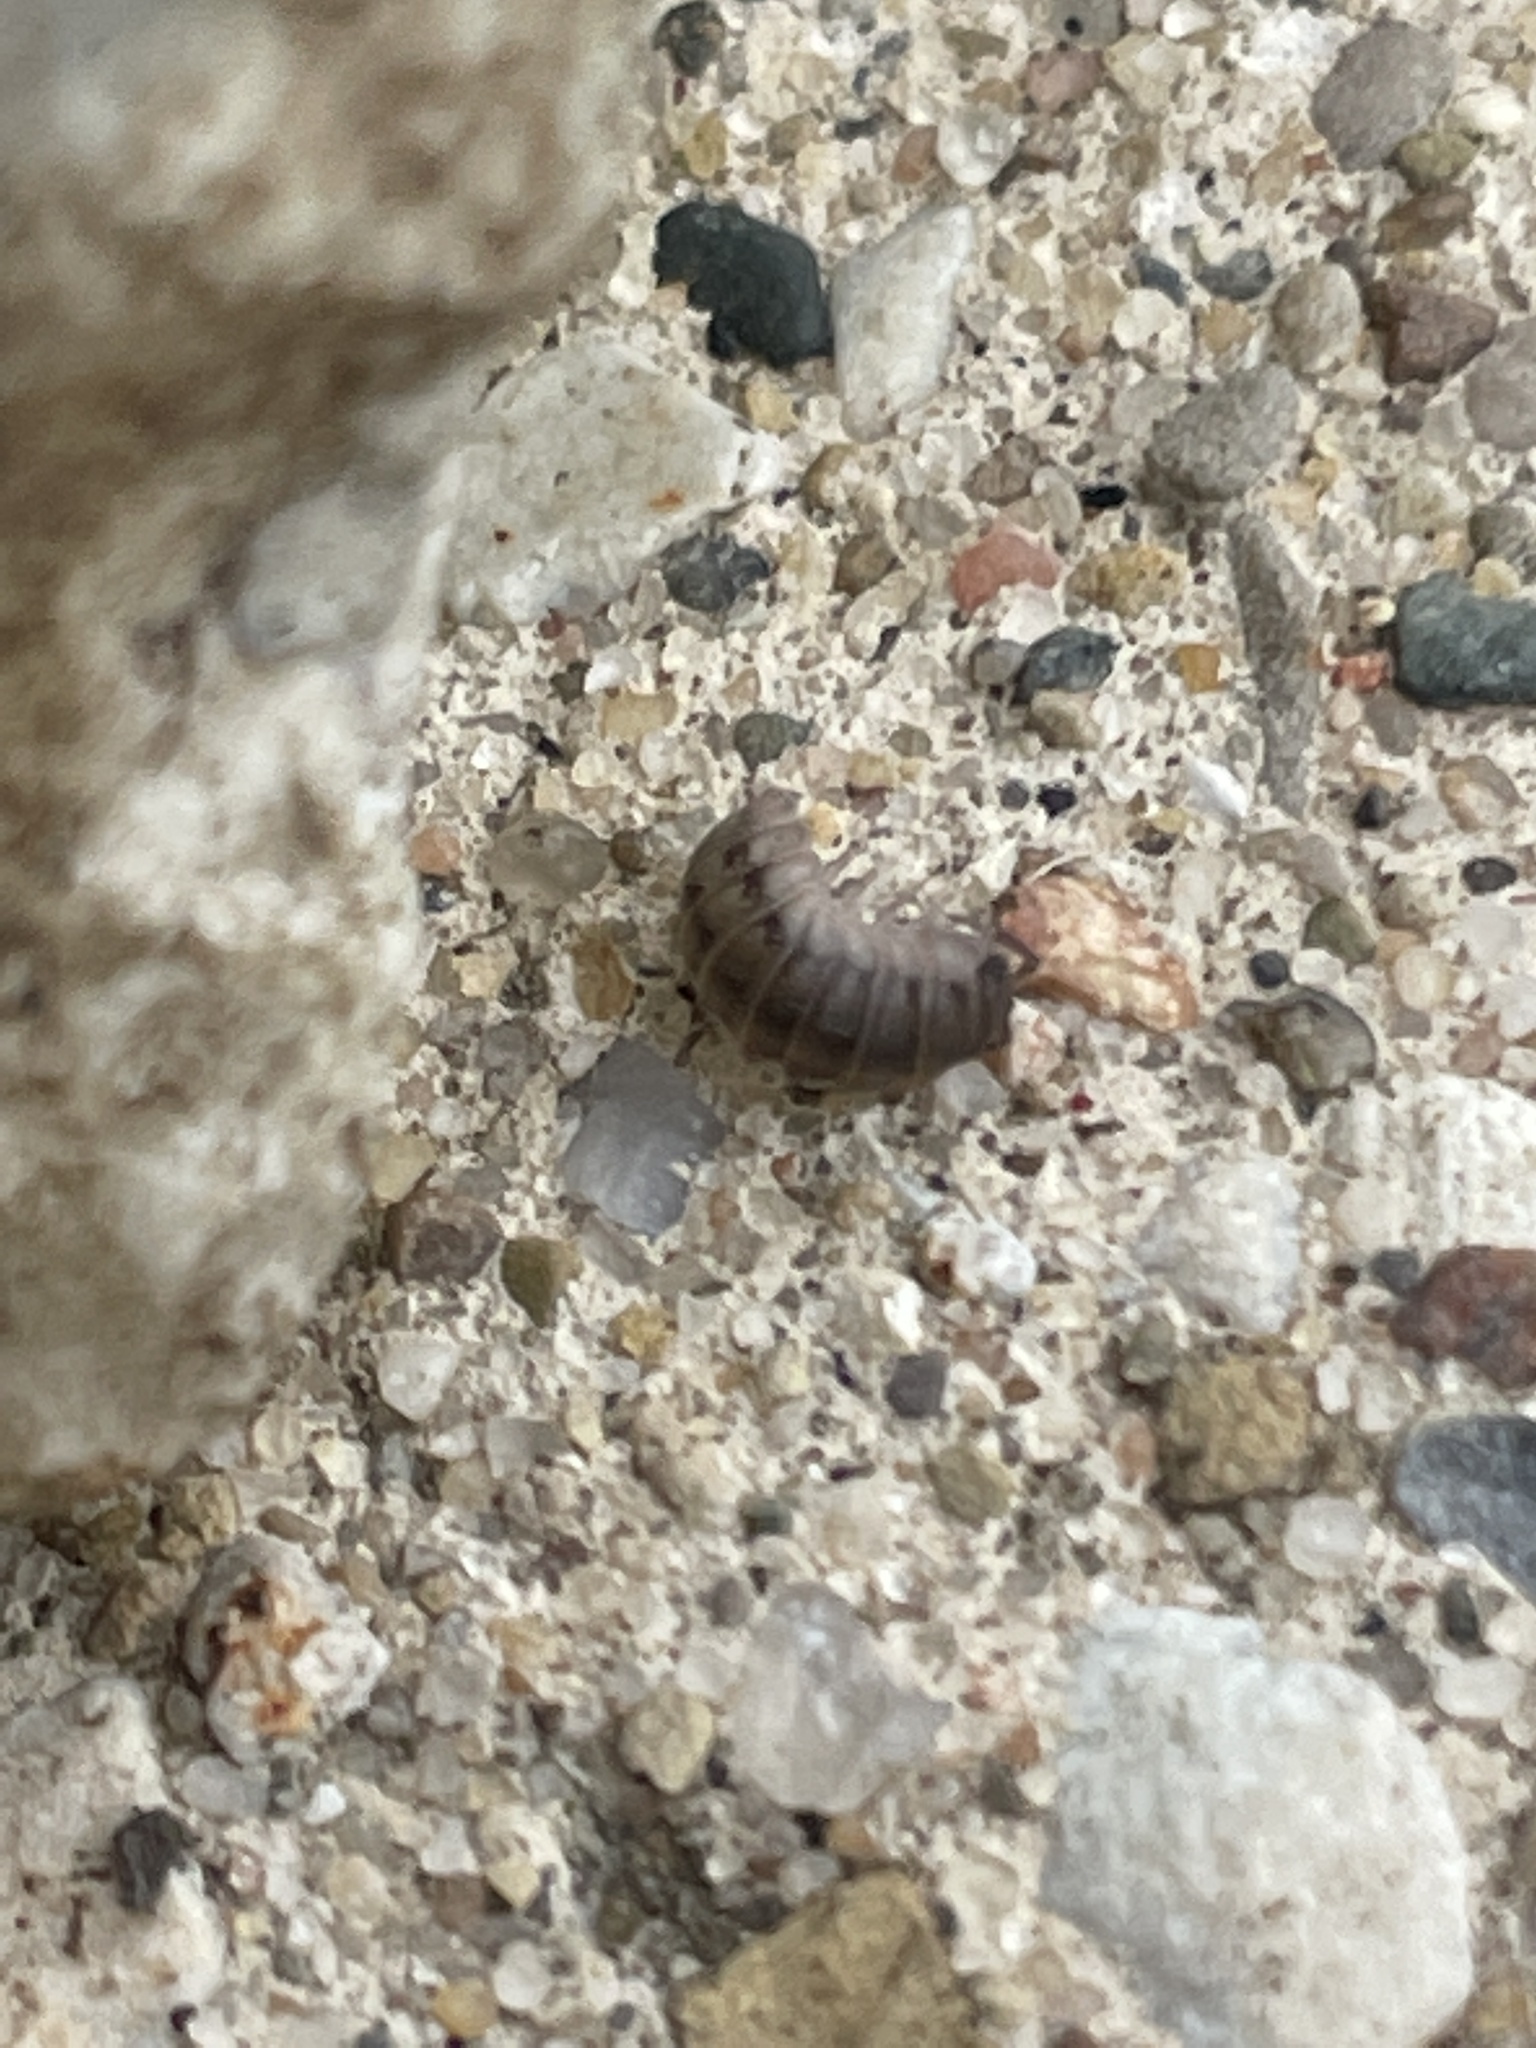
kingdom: Animalia
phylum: Arthropoda
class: Malacostraca
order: Isopoda
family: Armadillidiidae
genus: Armadillidium
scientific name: Armadillidium nasatum
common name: Isopod
